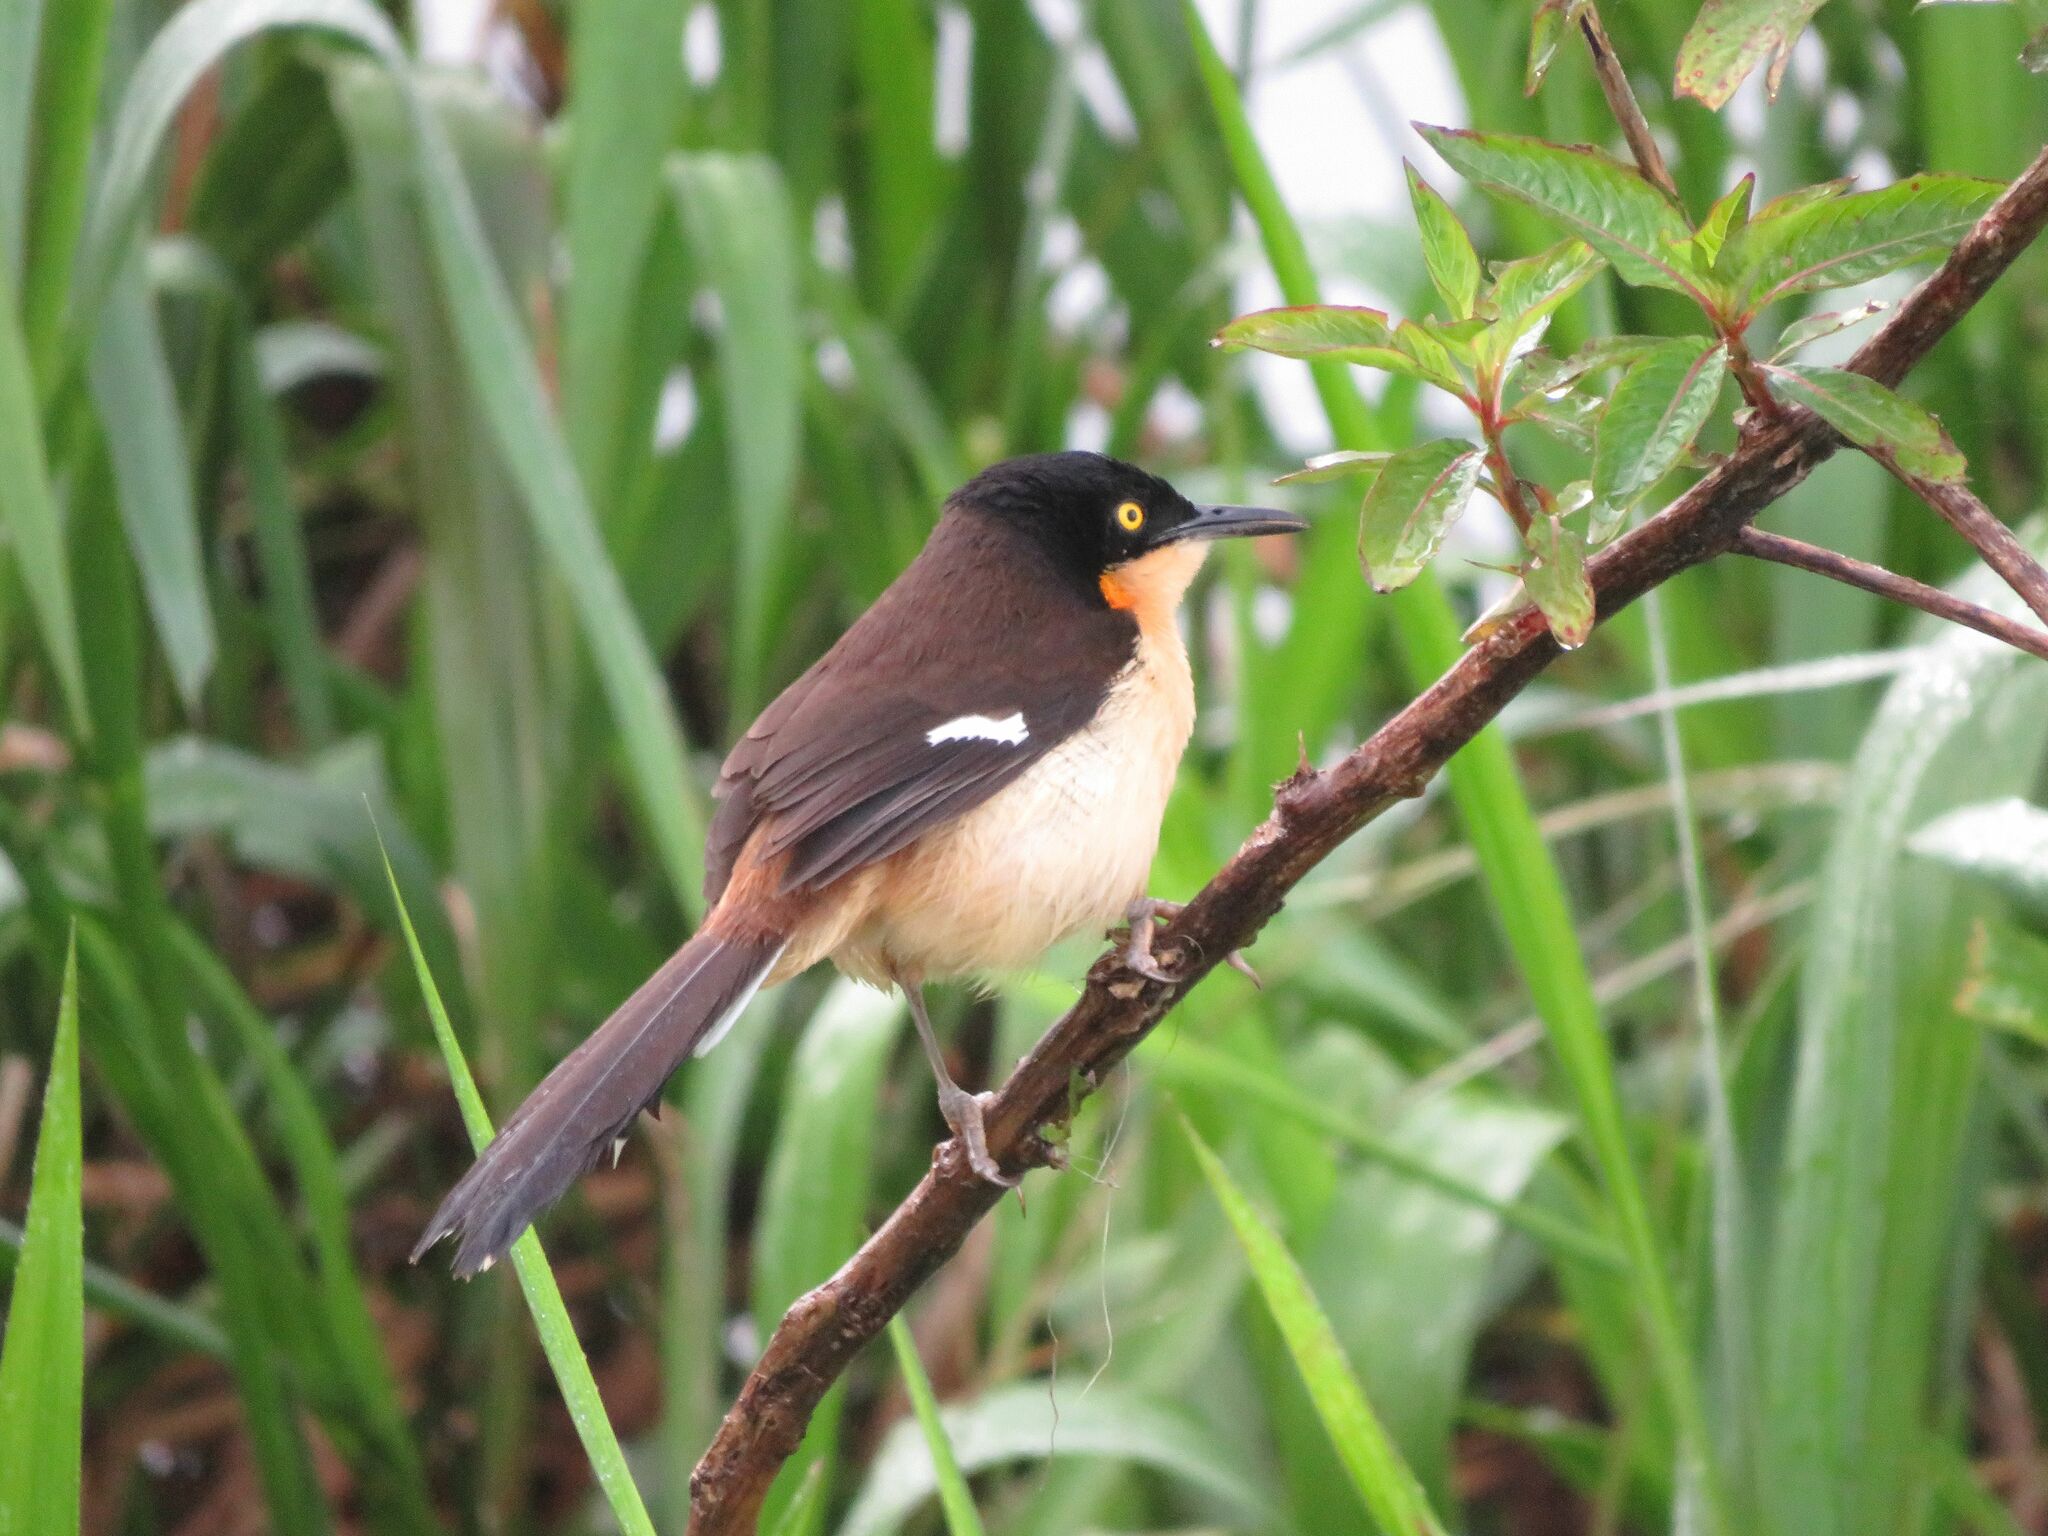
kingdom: Animalia
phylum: Chordata
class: Aves
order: Passeriformes
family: Donacobiidae
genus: Donacobius
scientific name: Donacobius atricapilla
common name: Black-capped donacobius
